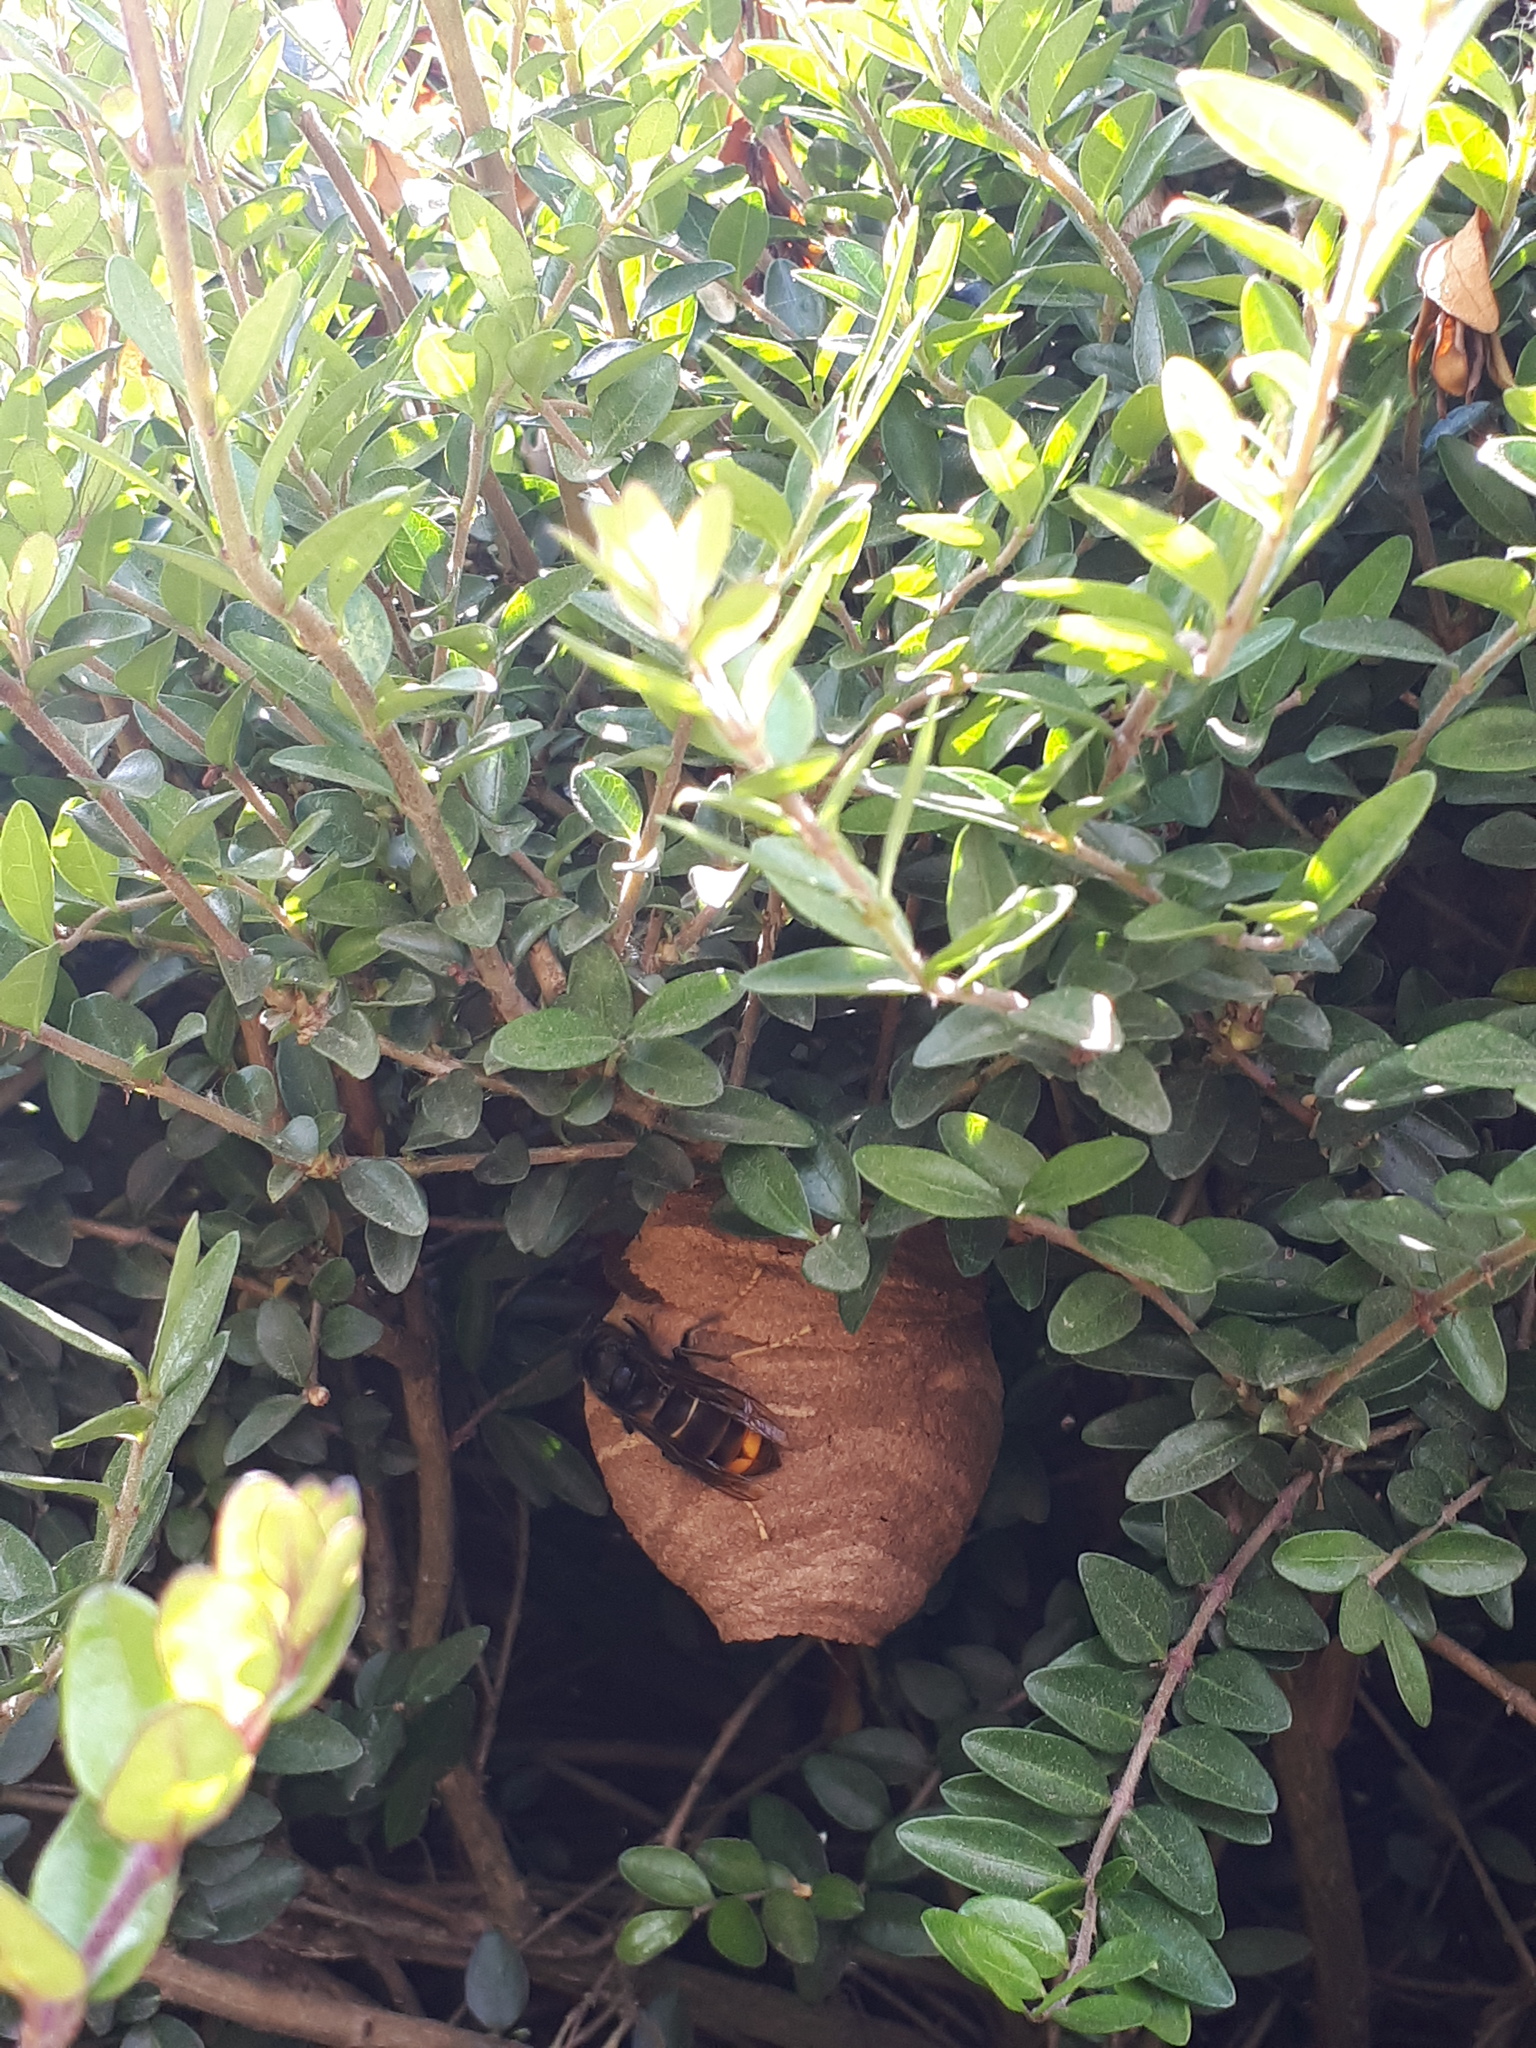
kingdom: Animalia
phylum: Arthropoda
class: Insecta
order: Hymenoptera
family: Vespidae
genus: Vespa
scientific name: Vespa velutina
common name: Asian hornet
